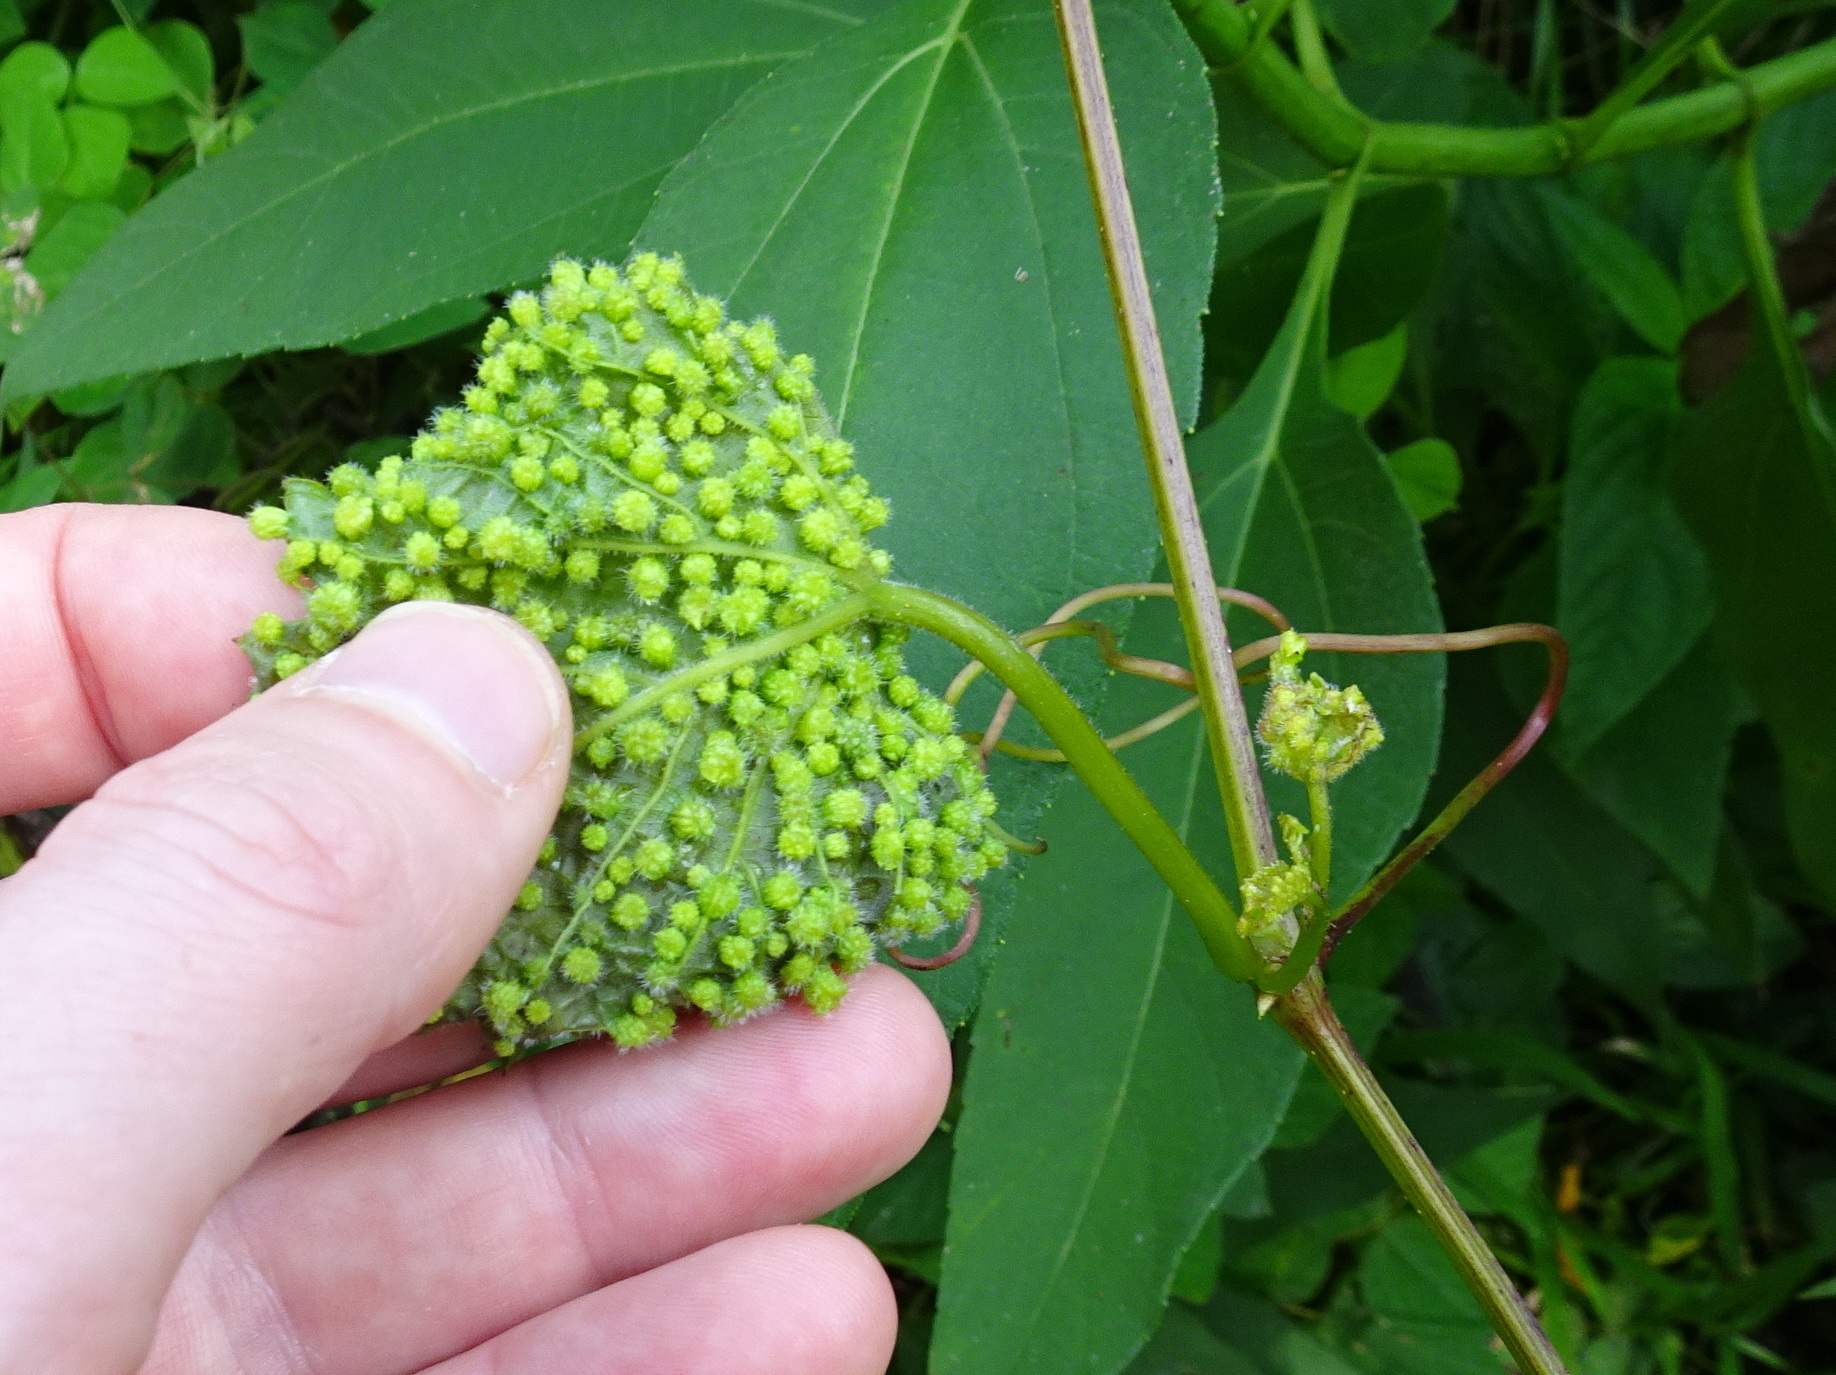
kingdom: Animalia
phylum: Arthropoda
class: Insecta
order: Hemiptera
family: Phylloxeridae
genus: Daktulosphaira
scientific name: Daktulosphaira vitifoliae
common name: Grape phylloxera
